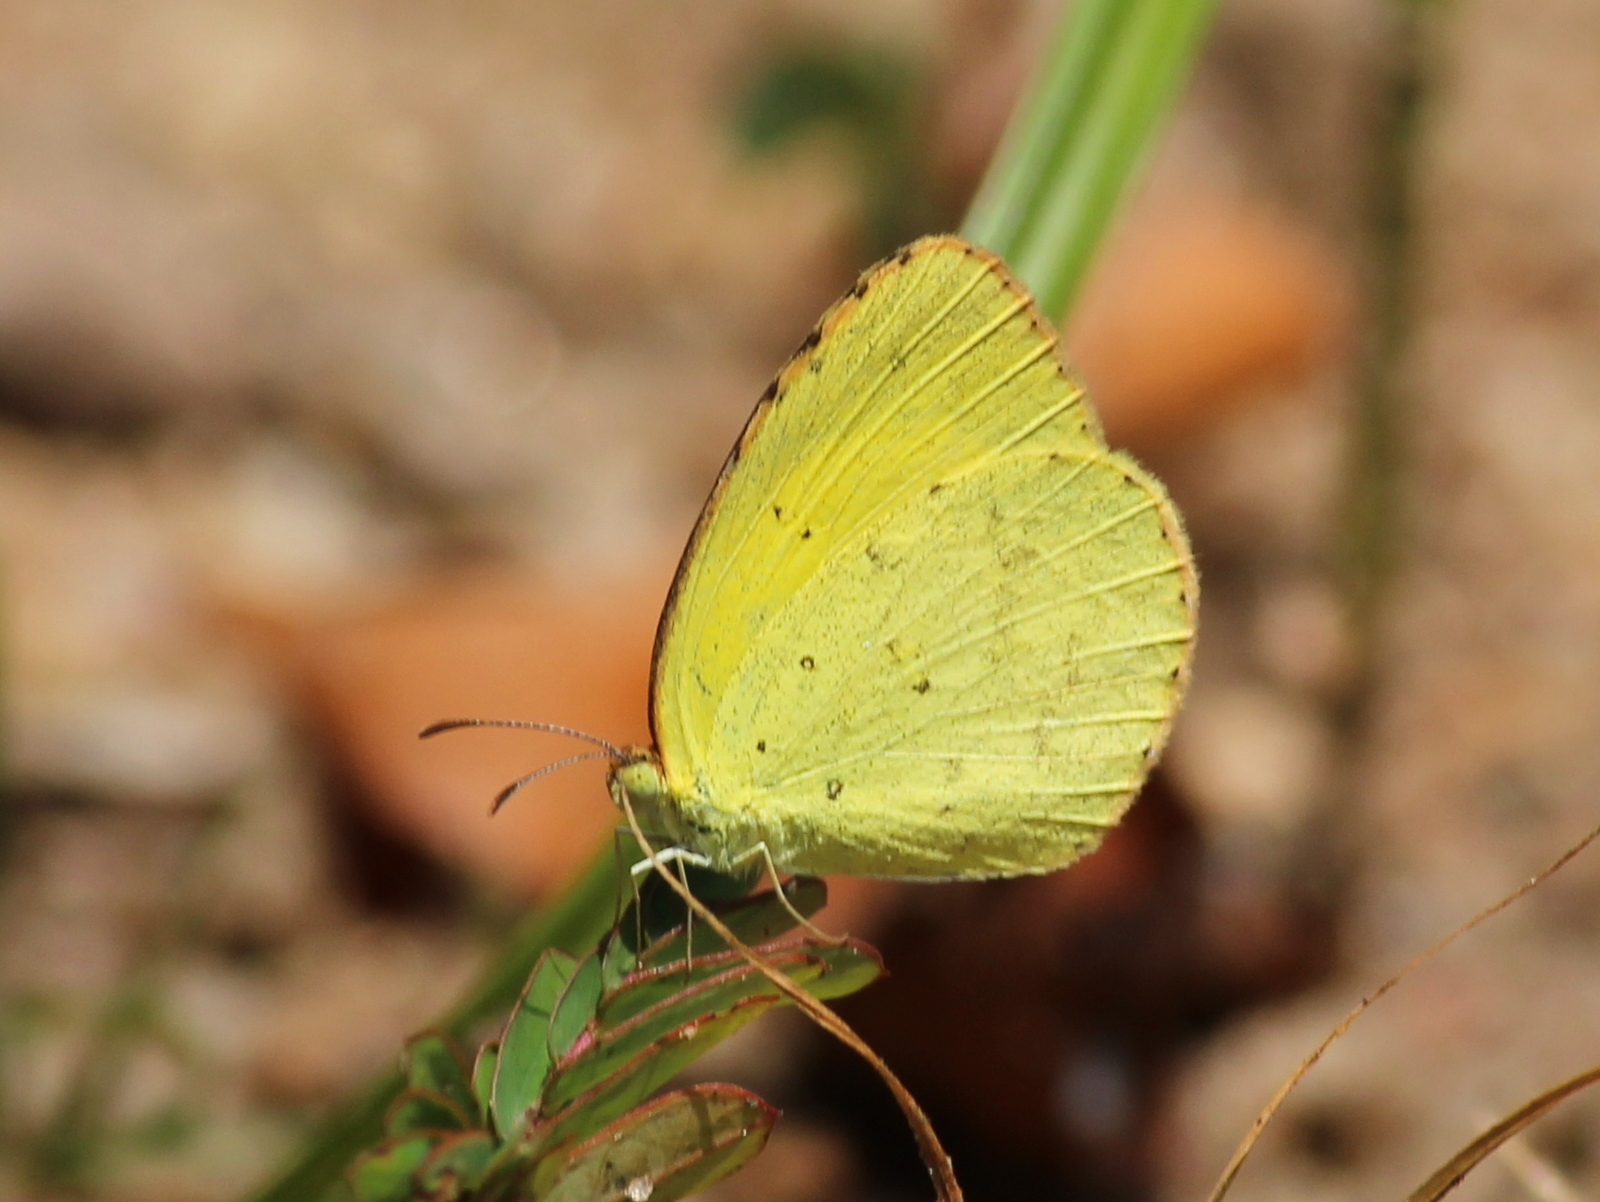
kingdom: Animalia
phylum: Arthropoda
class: Insecta
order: Lepidoptera
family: Pieridae
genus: Eurema
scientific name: Eurema brigitta
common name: Small grass yellow
